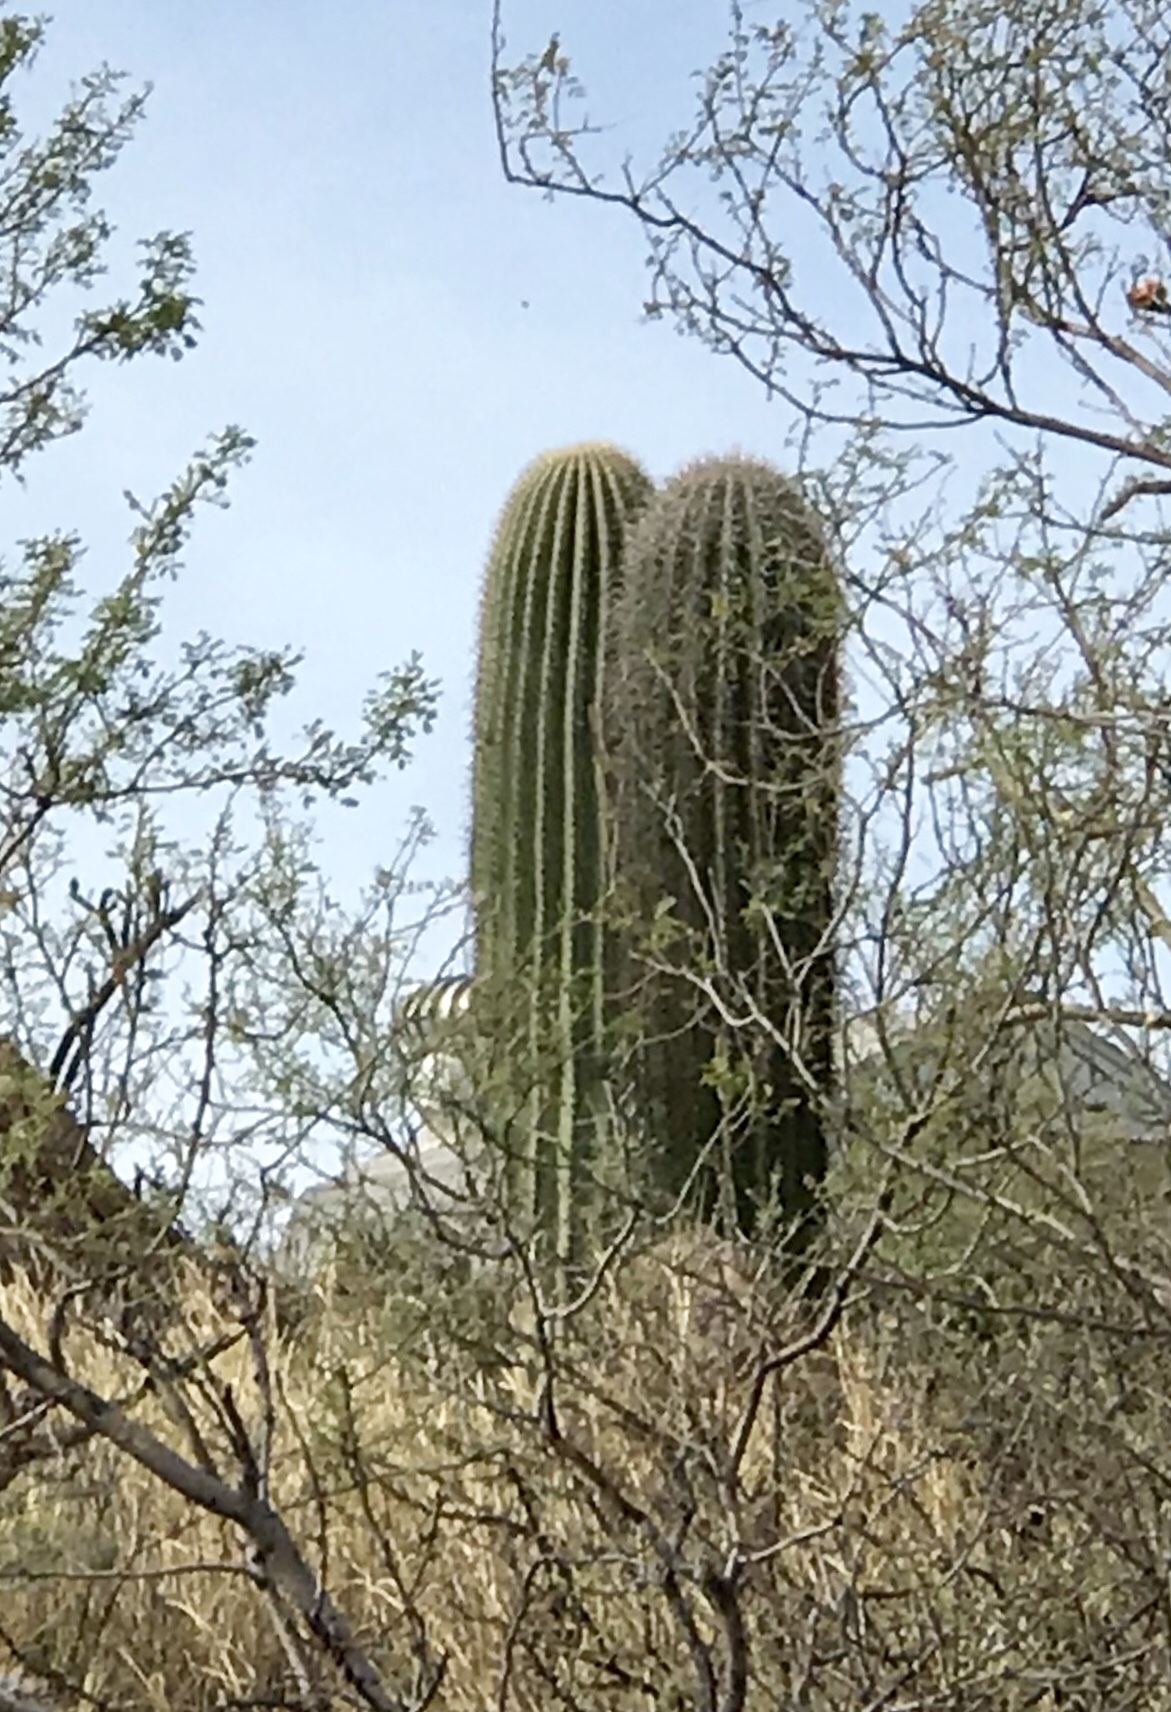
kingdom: Plantae
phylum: Tracheophyta
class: Magnoliopsida
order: Caryophyllales
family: Cactaceae
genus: Carnegiea
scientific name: Carnegiea gigantea
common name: Saguaro
